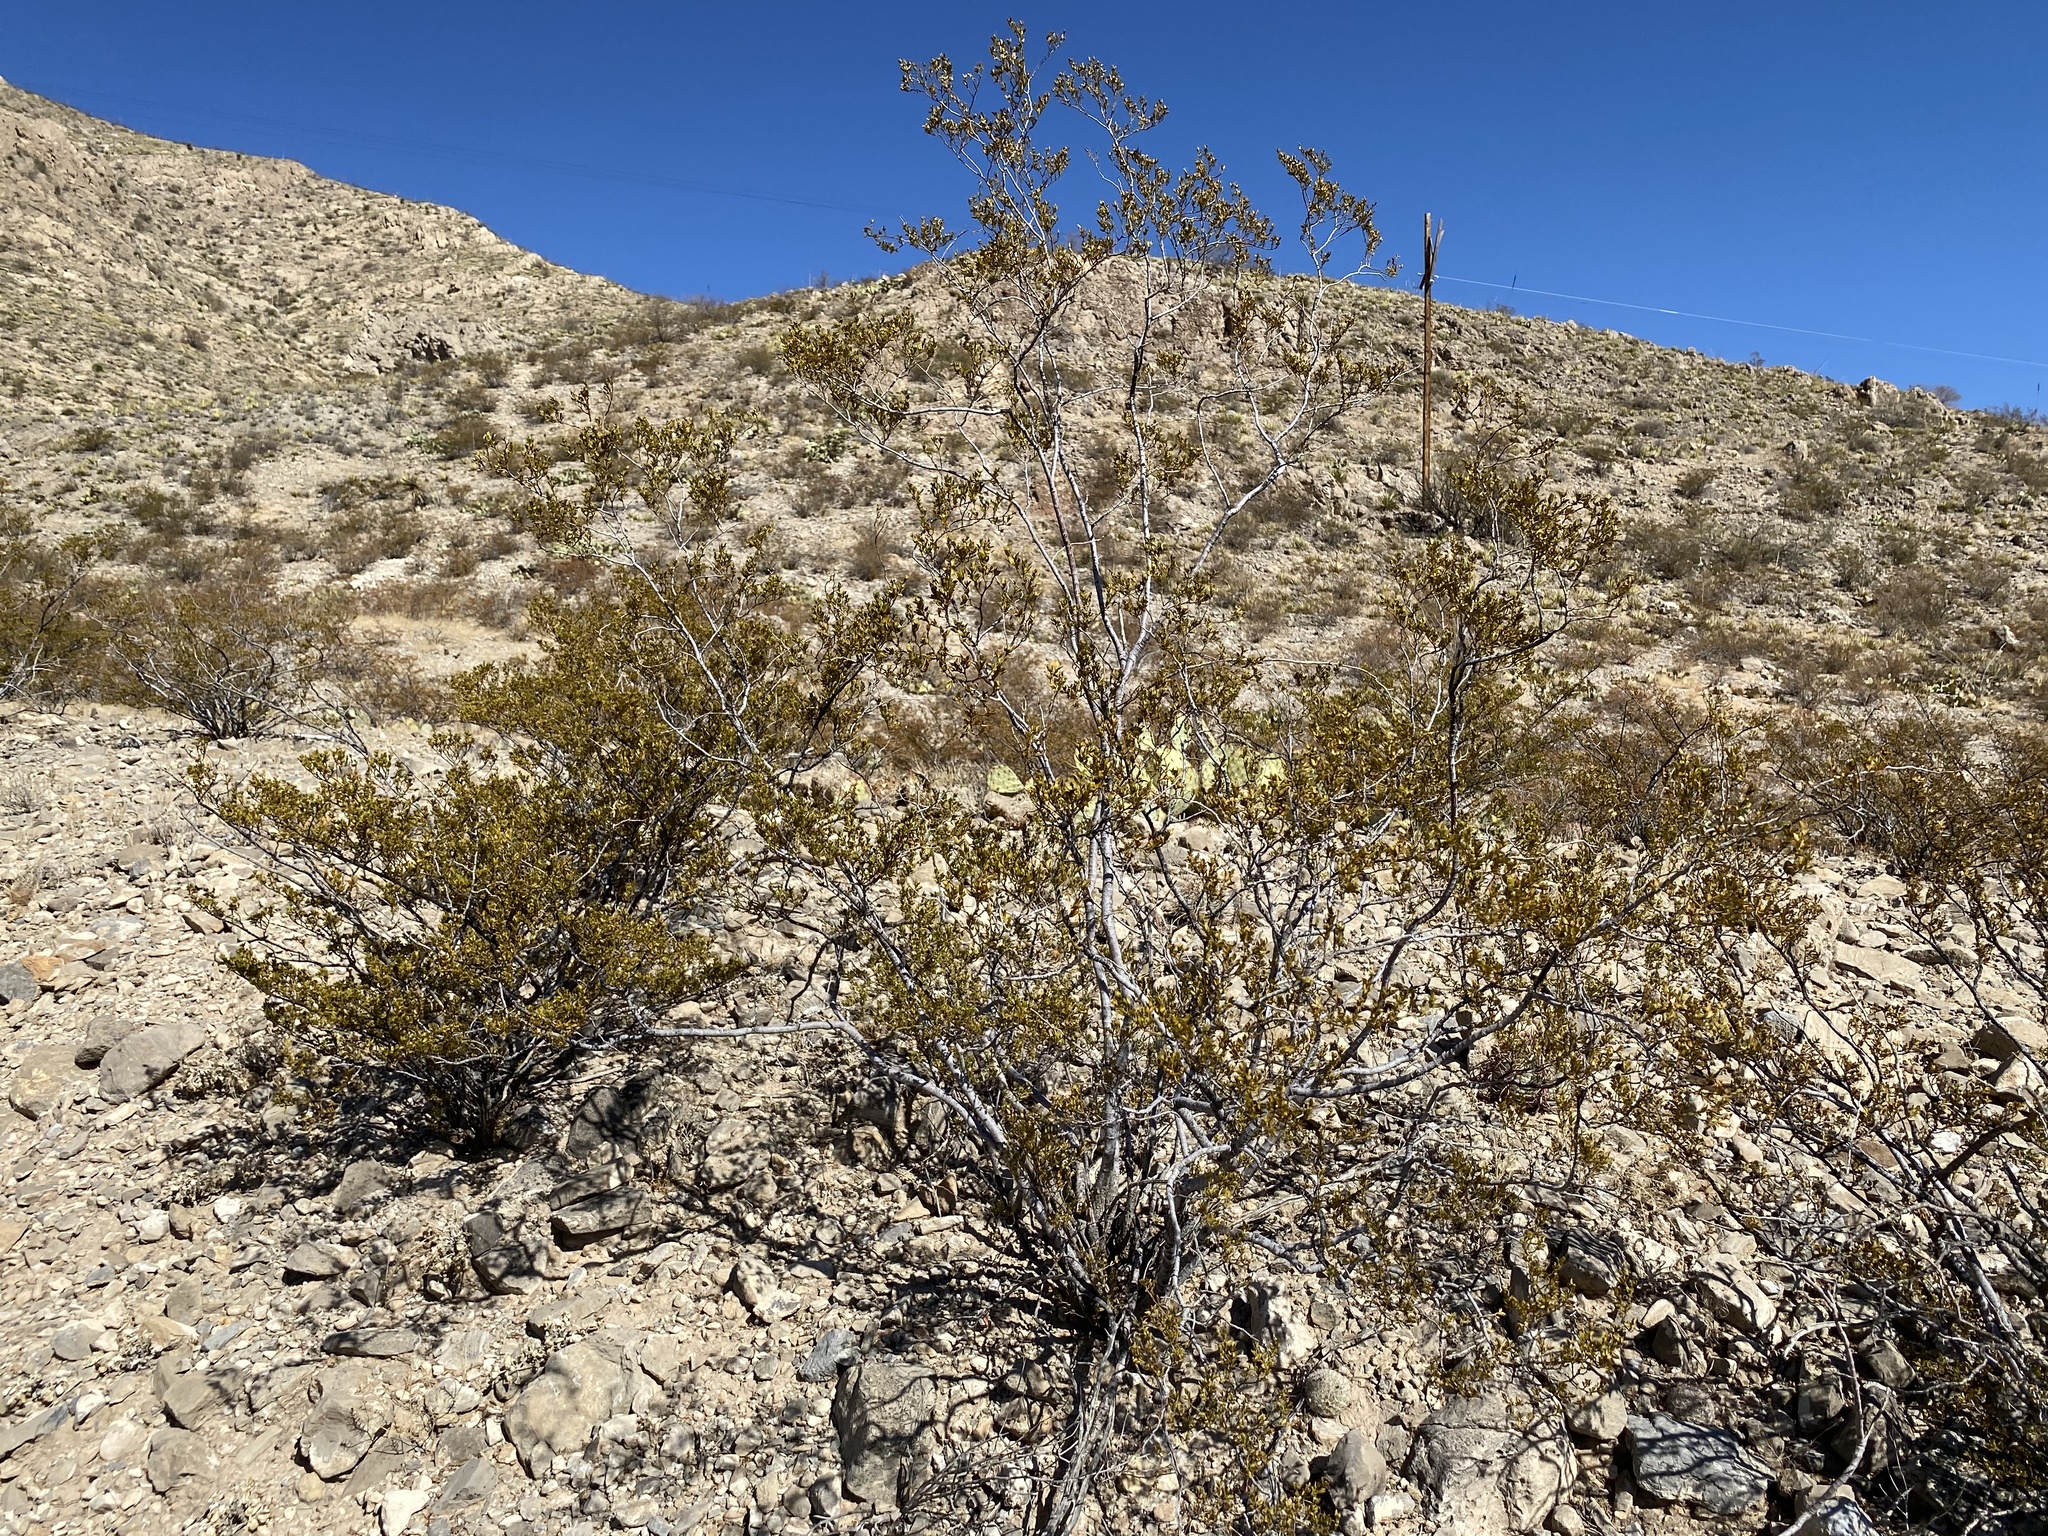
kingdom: Plantae
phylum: Tracheophyta
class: Magnoliopsida
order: Zygophyllales
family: Zygophyllaceae
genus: Larrea
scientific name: Larrea tridentata
